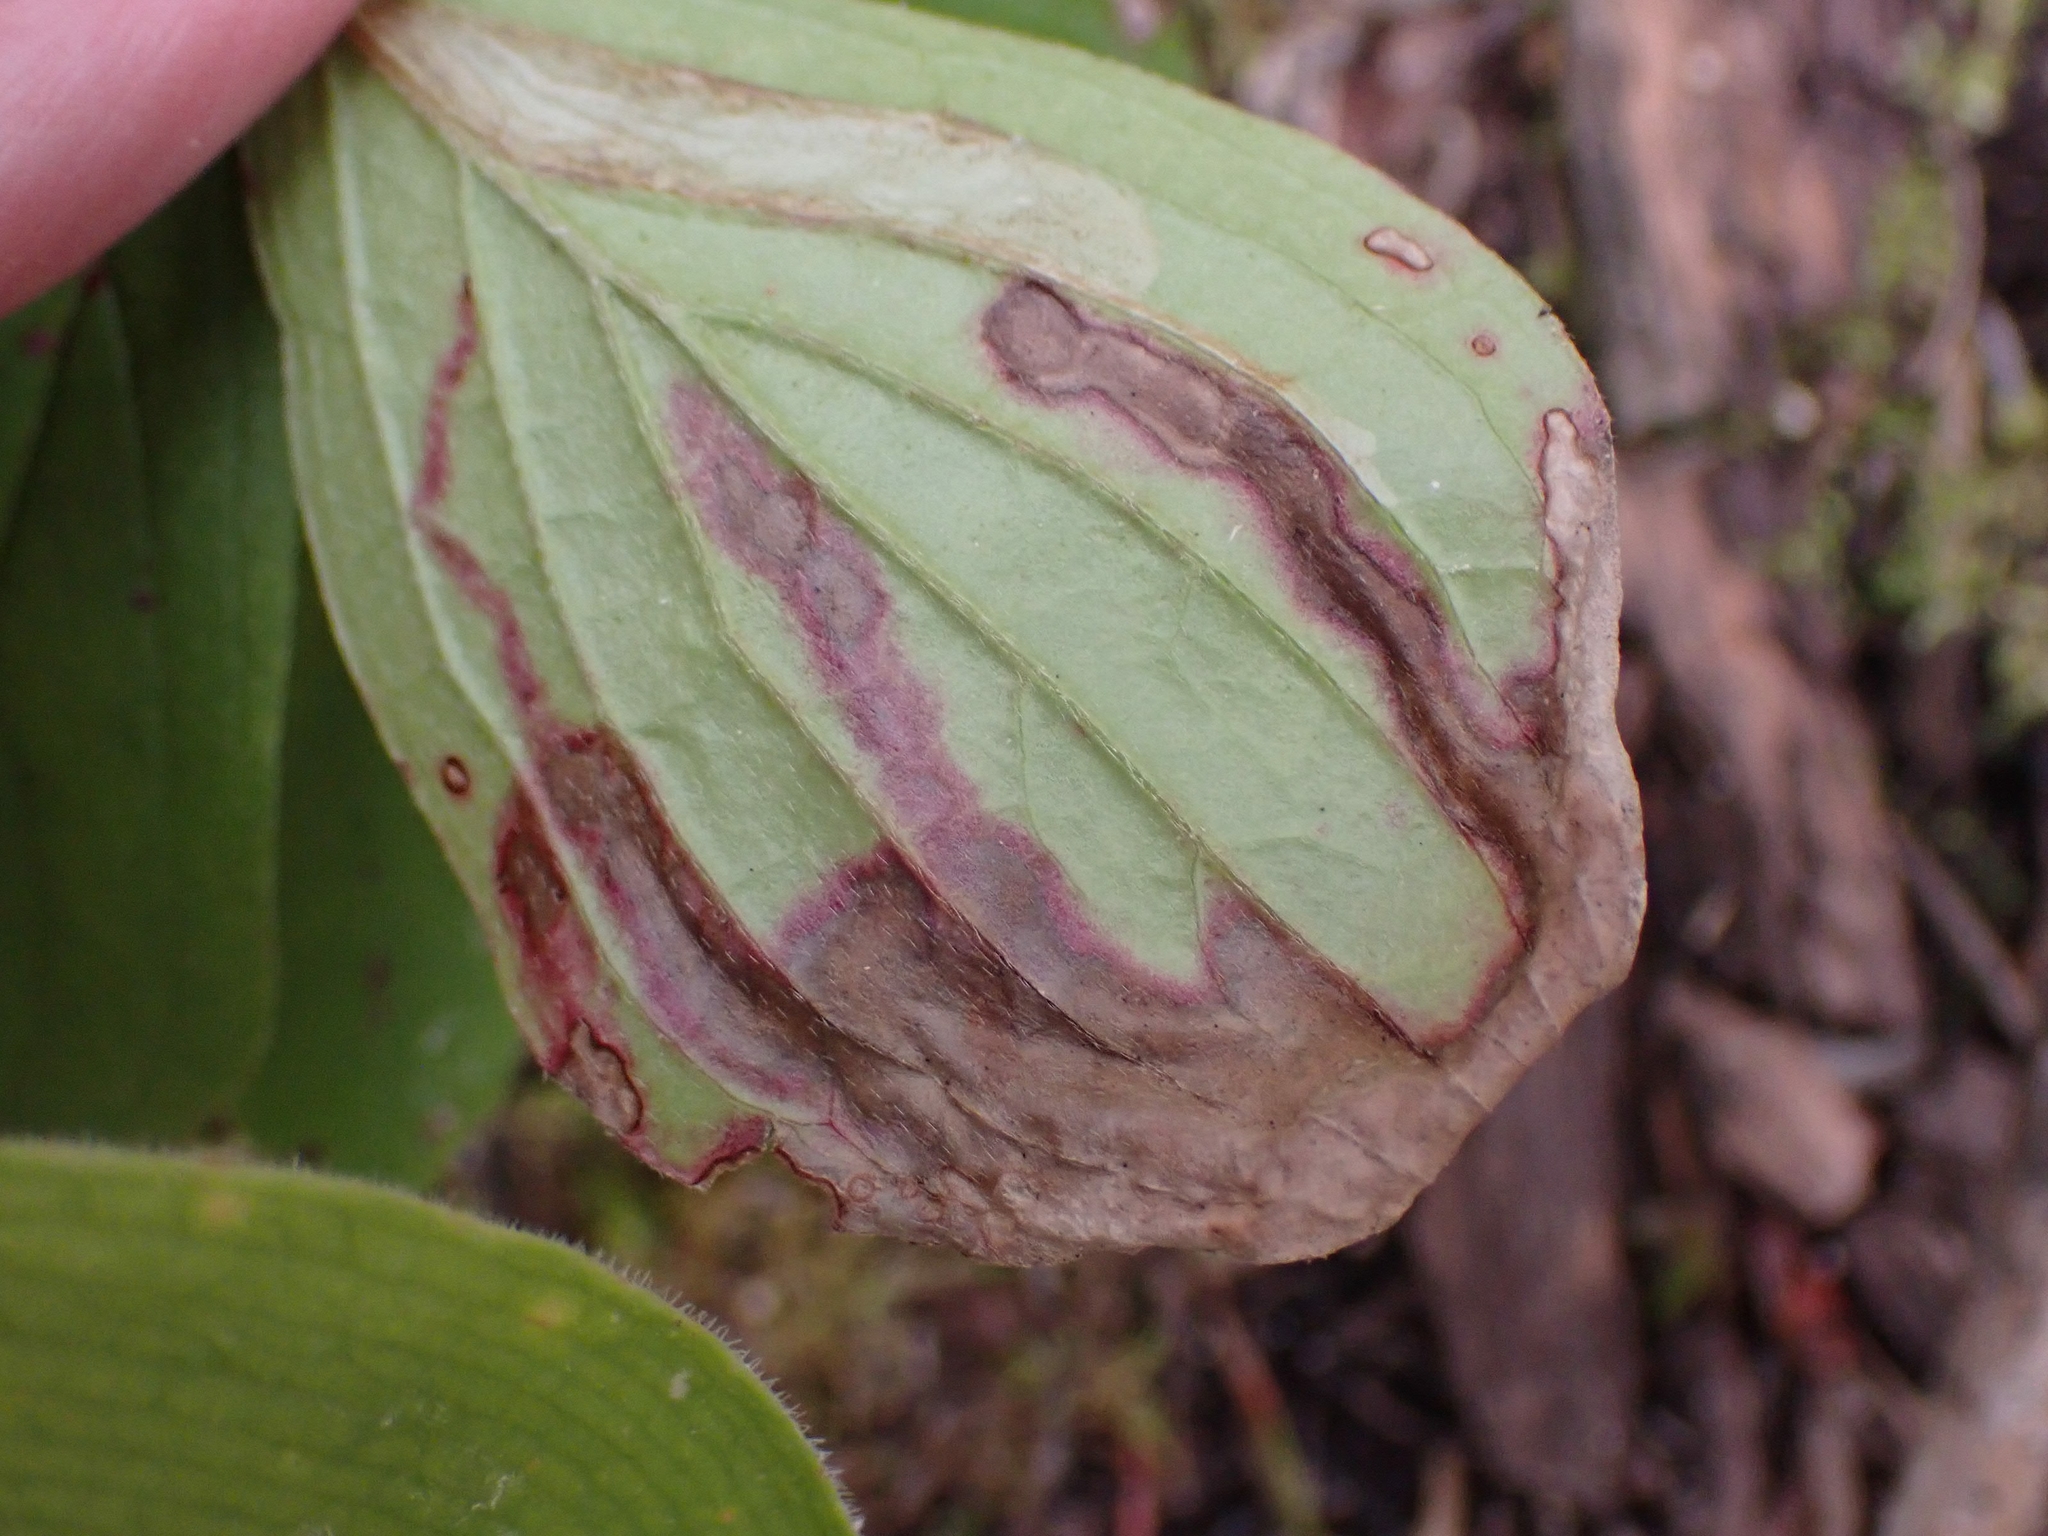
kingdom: Animalia
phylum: Arthropoda
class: Insecta
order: Diptera
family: Agromyzidae
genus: Phytomyza
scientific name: Phytomyza agromyzina
